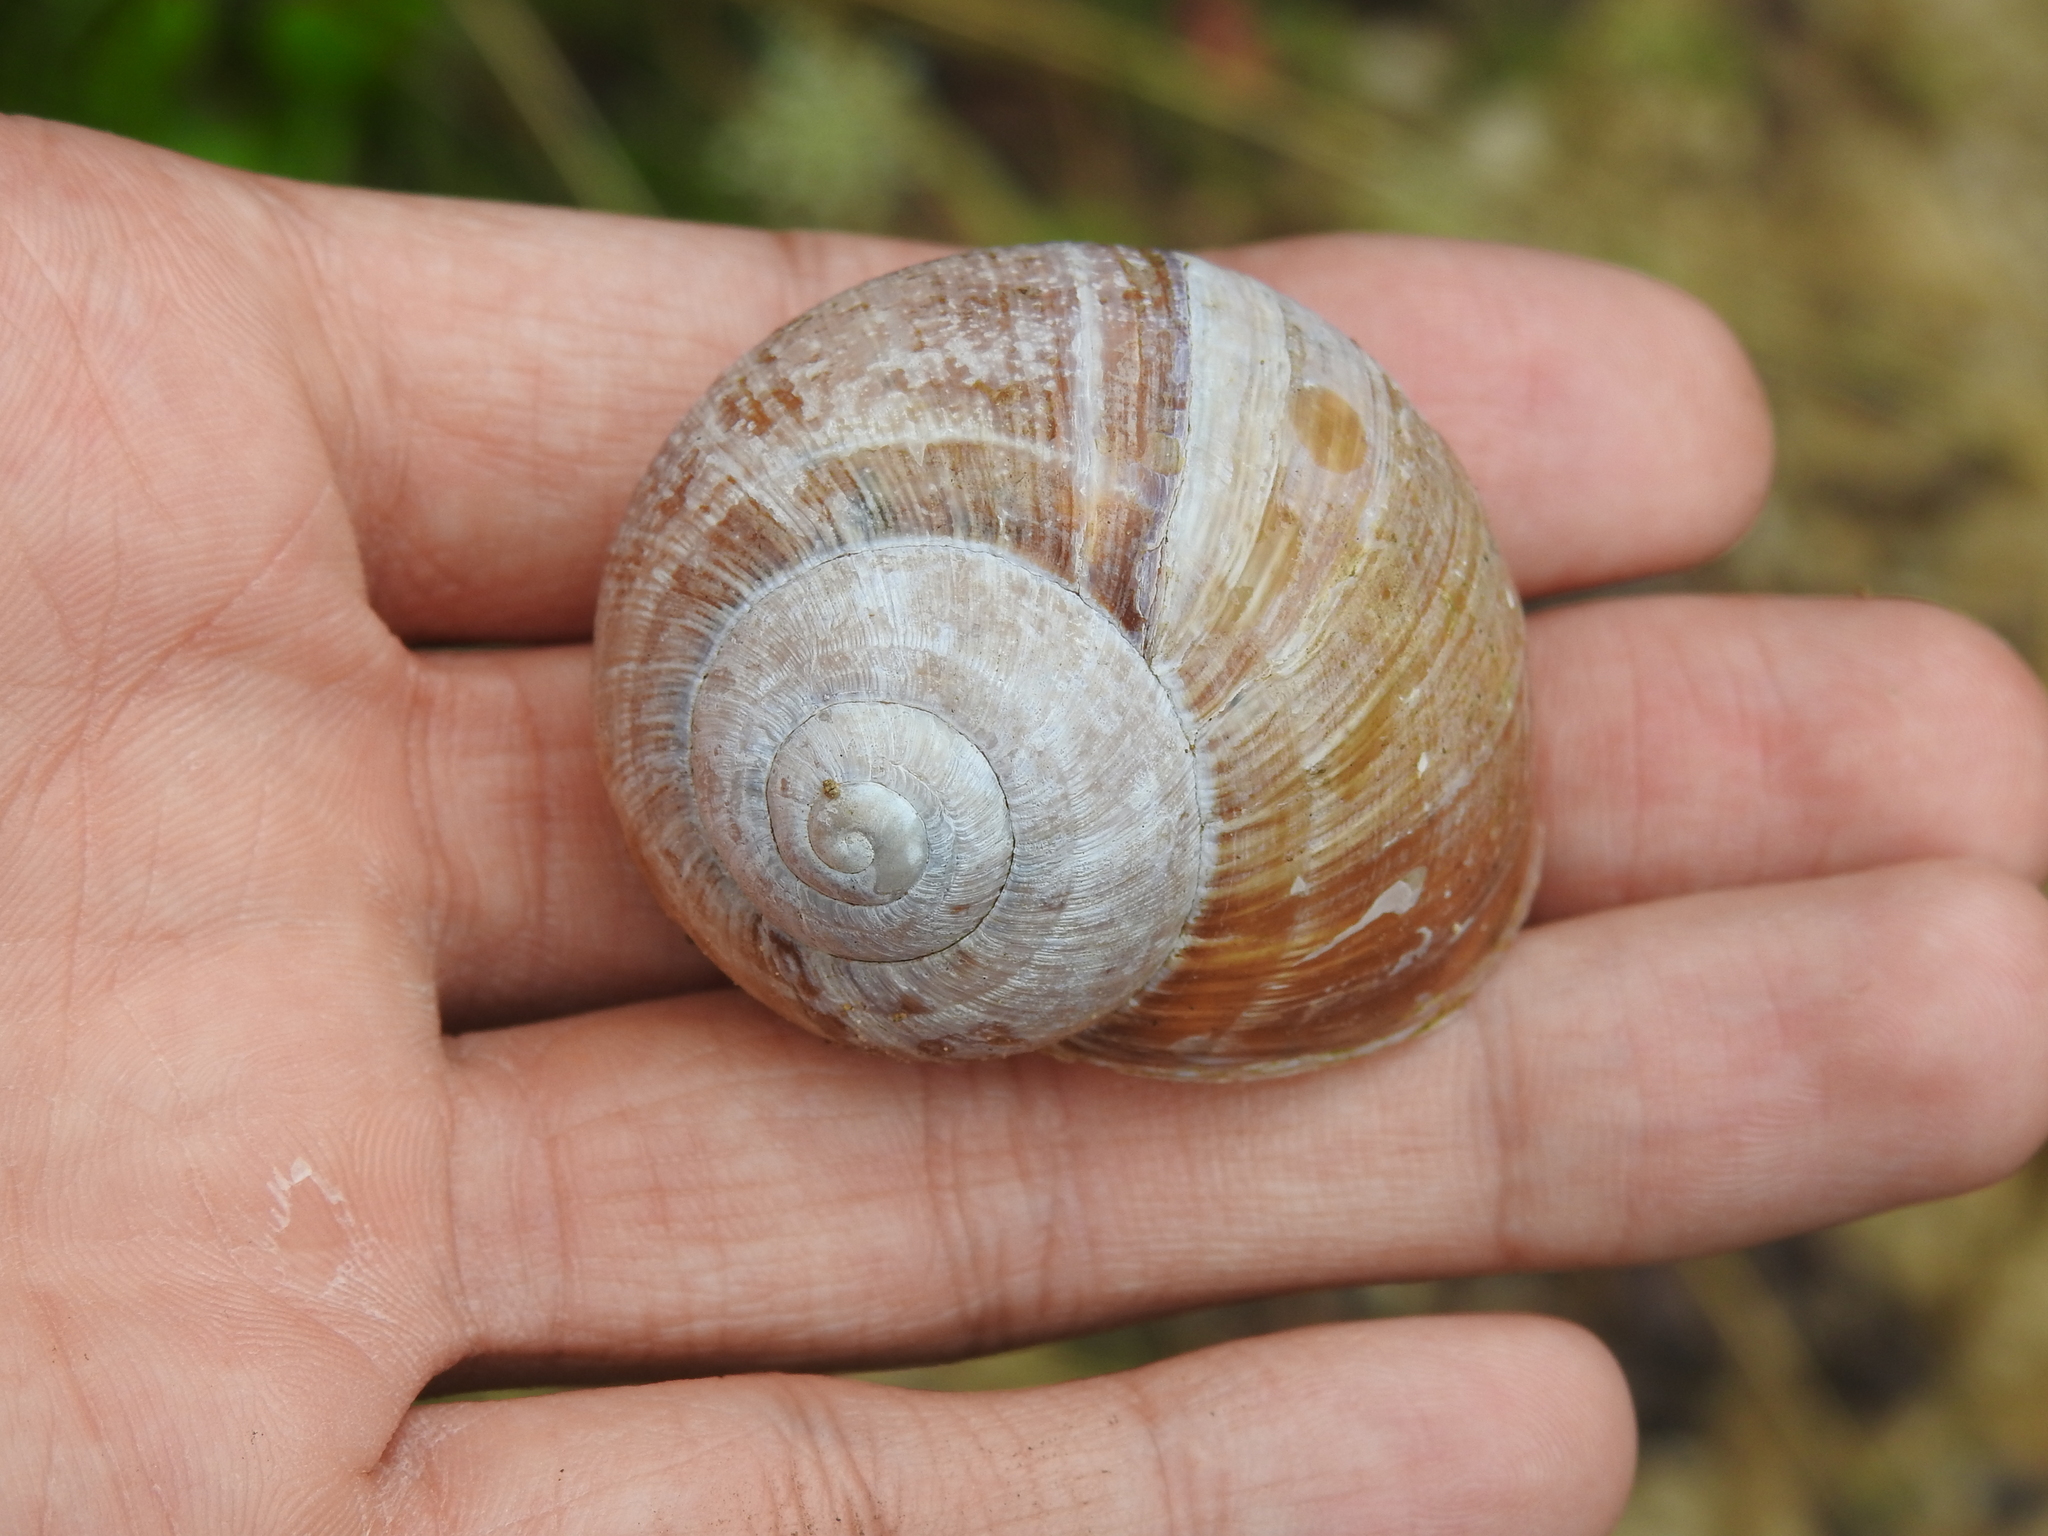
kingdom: Animalia
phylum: Mollusca
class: Gastropoda
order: Stylommatophora
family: Helicidae
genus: Helix
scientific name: Helix pomatia
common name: Roman snail
